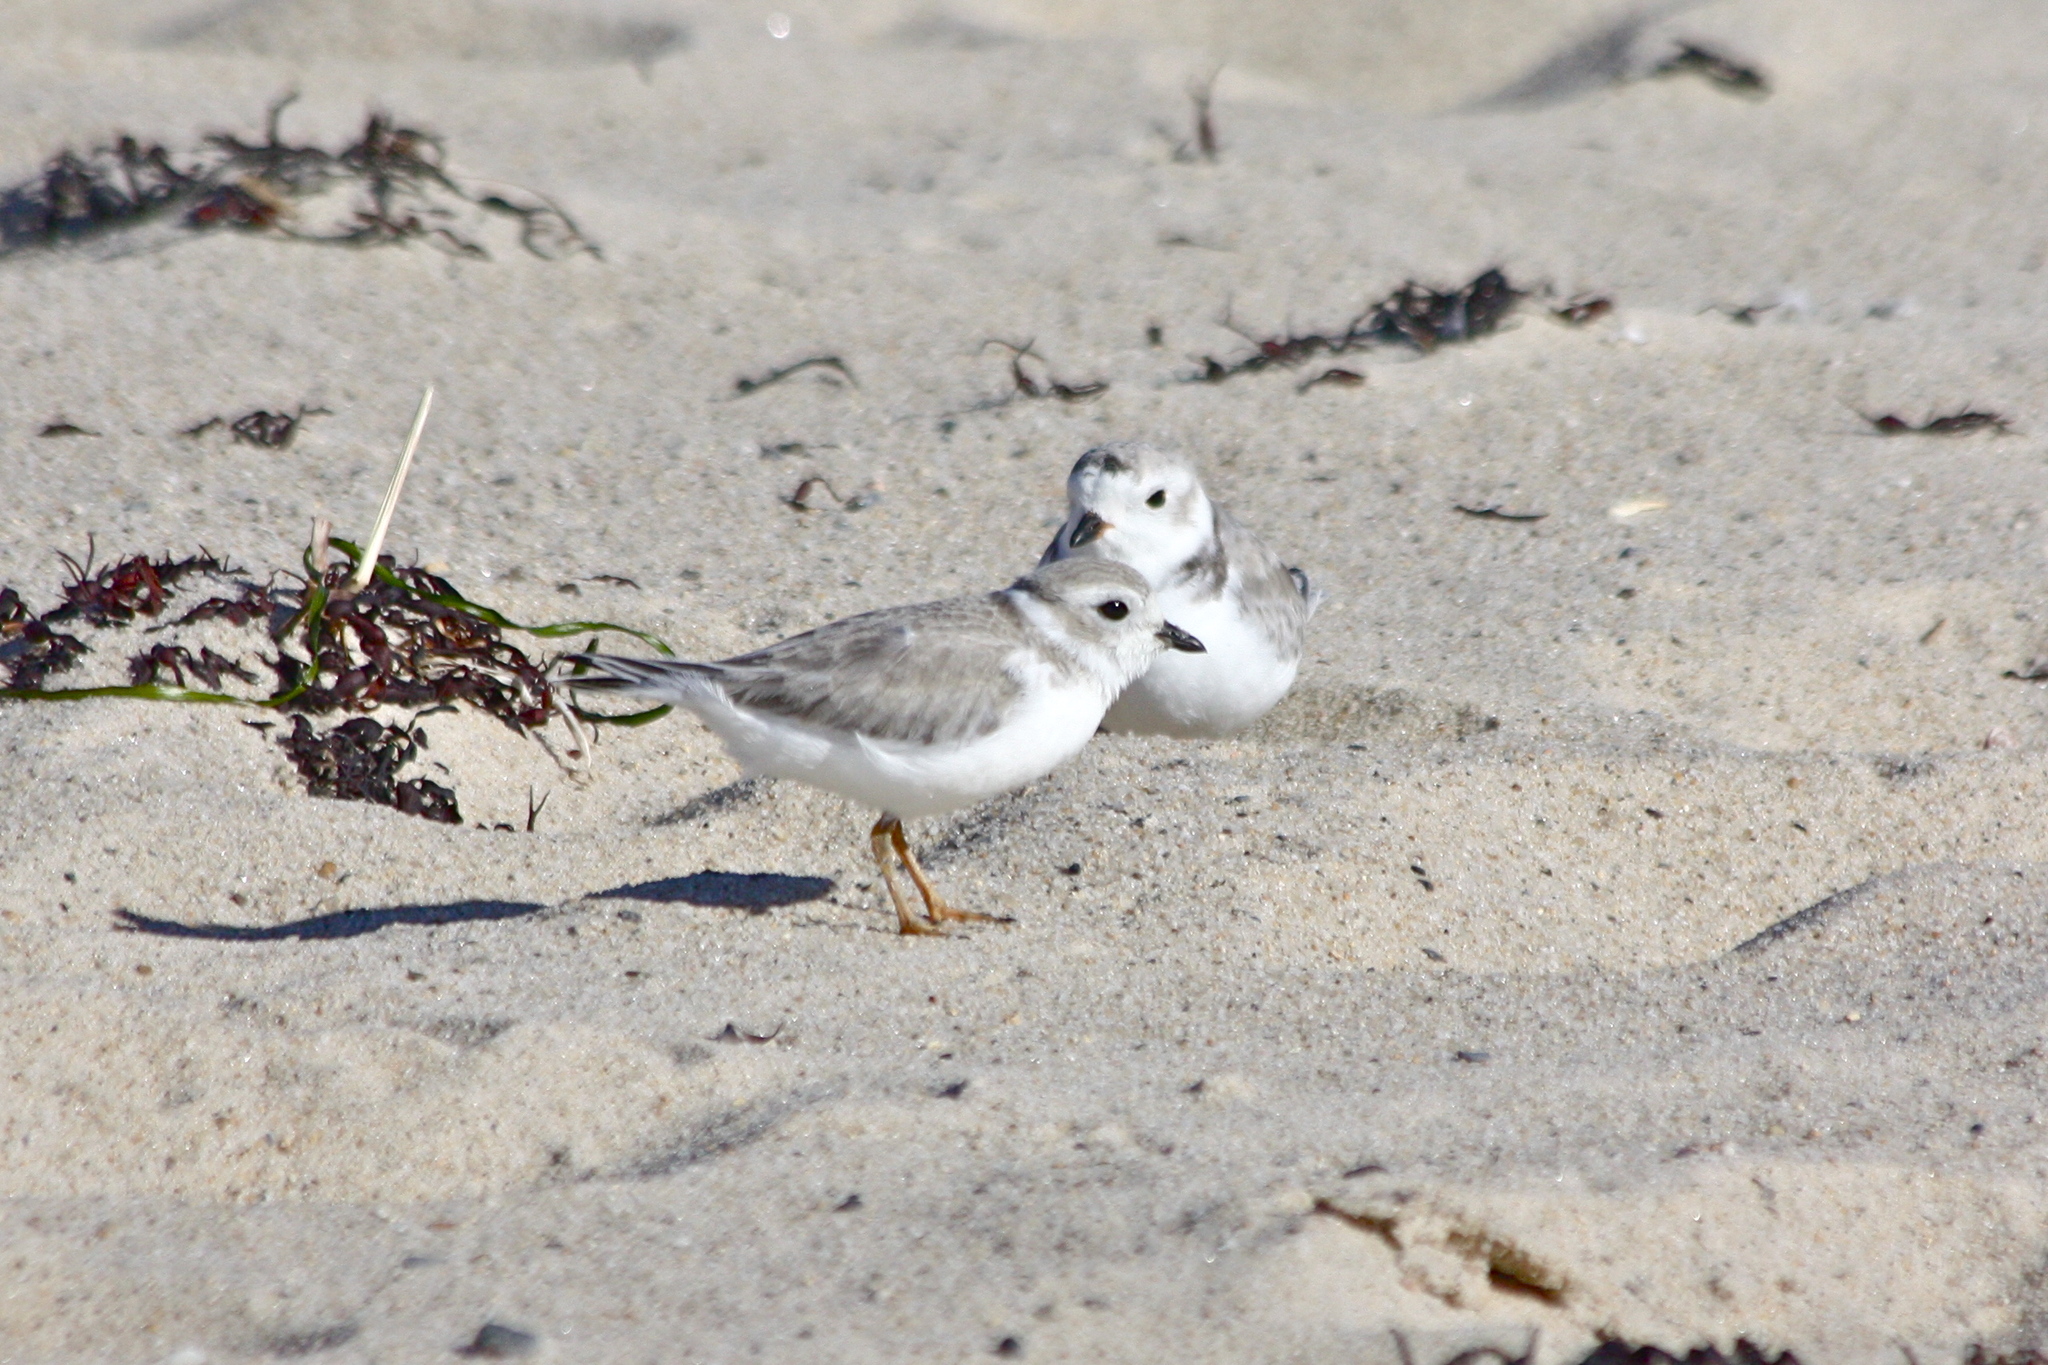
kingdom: Animalia
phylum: Chordata
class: Aves
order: Charadriiformes
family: Charadriidae
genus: Charadrius
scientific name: Charadrius melodus
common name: Piping plover
